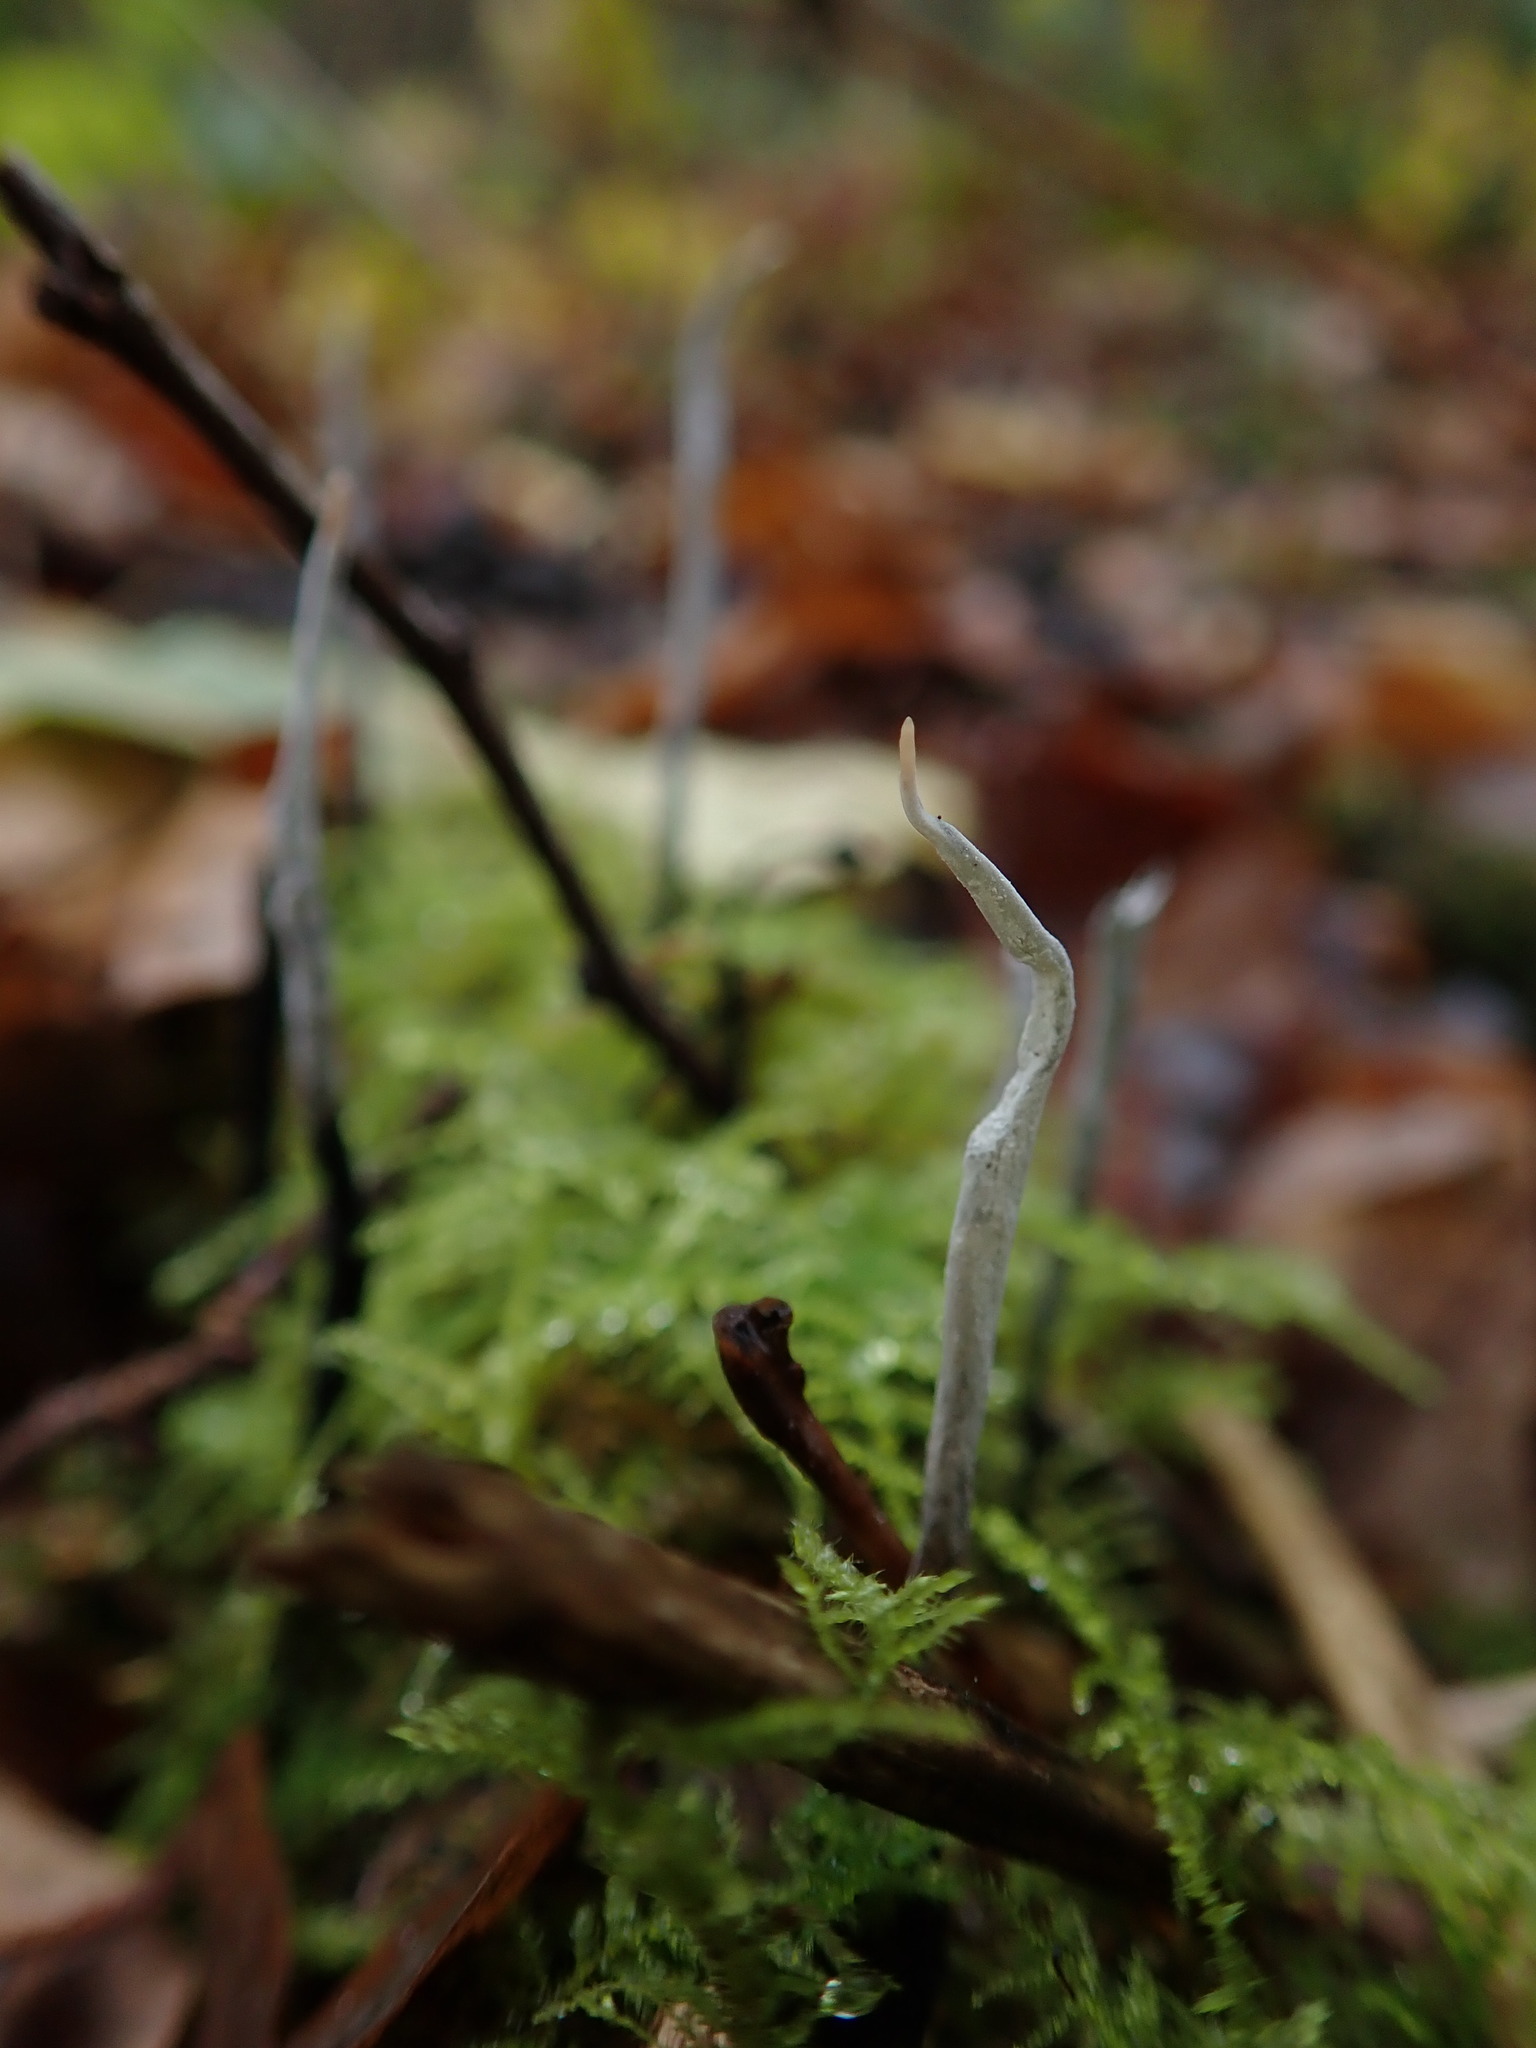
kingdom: Fungi
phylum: Ascomycota
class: Sordariomycetes
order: Xylariales
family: Xylariaceae
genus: Xylaria
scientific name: Xylaria hypoxylon
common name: Candle-snuff fungus
